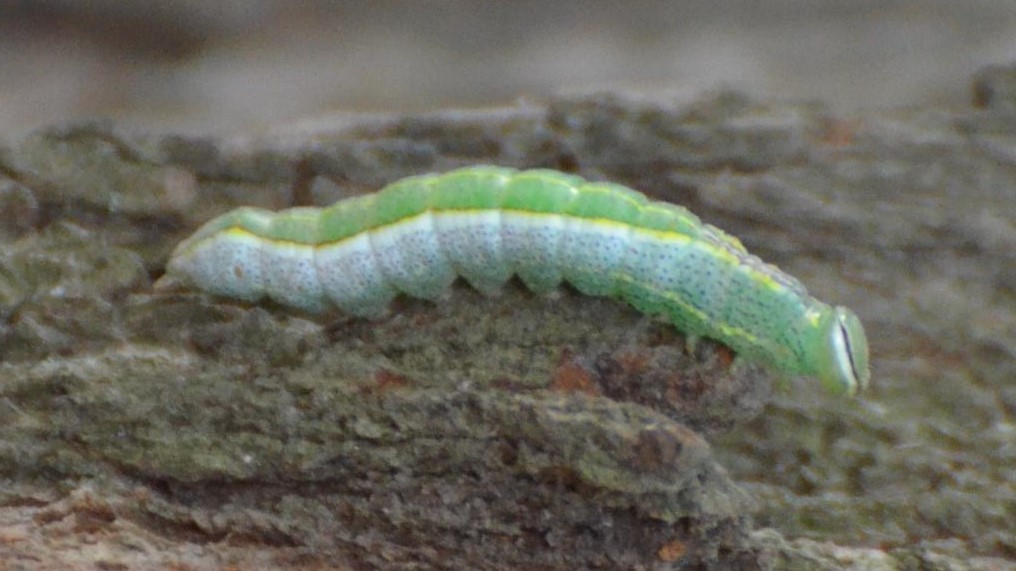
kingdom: Animalia
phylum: Arthropoda
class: Insecta
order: Lepidoptera
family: Notodontidae
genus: Lochmaeus
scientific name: Lochmaeus manteo
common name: Variable oakleaf caterpillar moth
